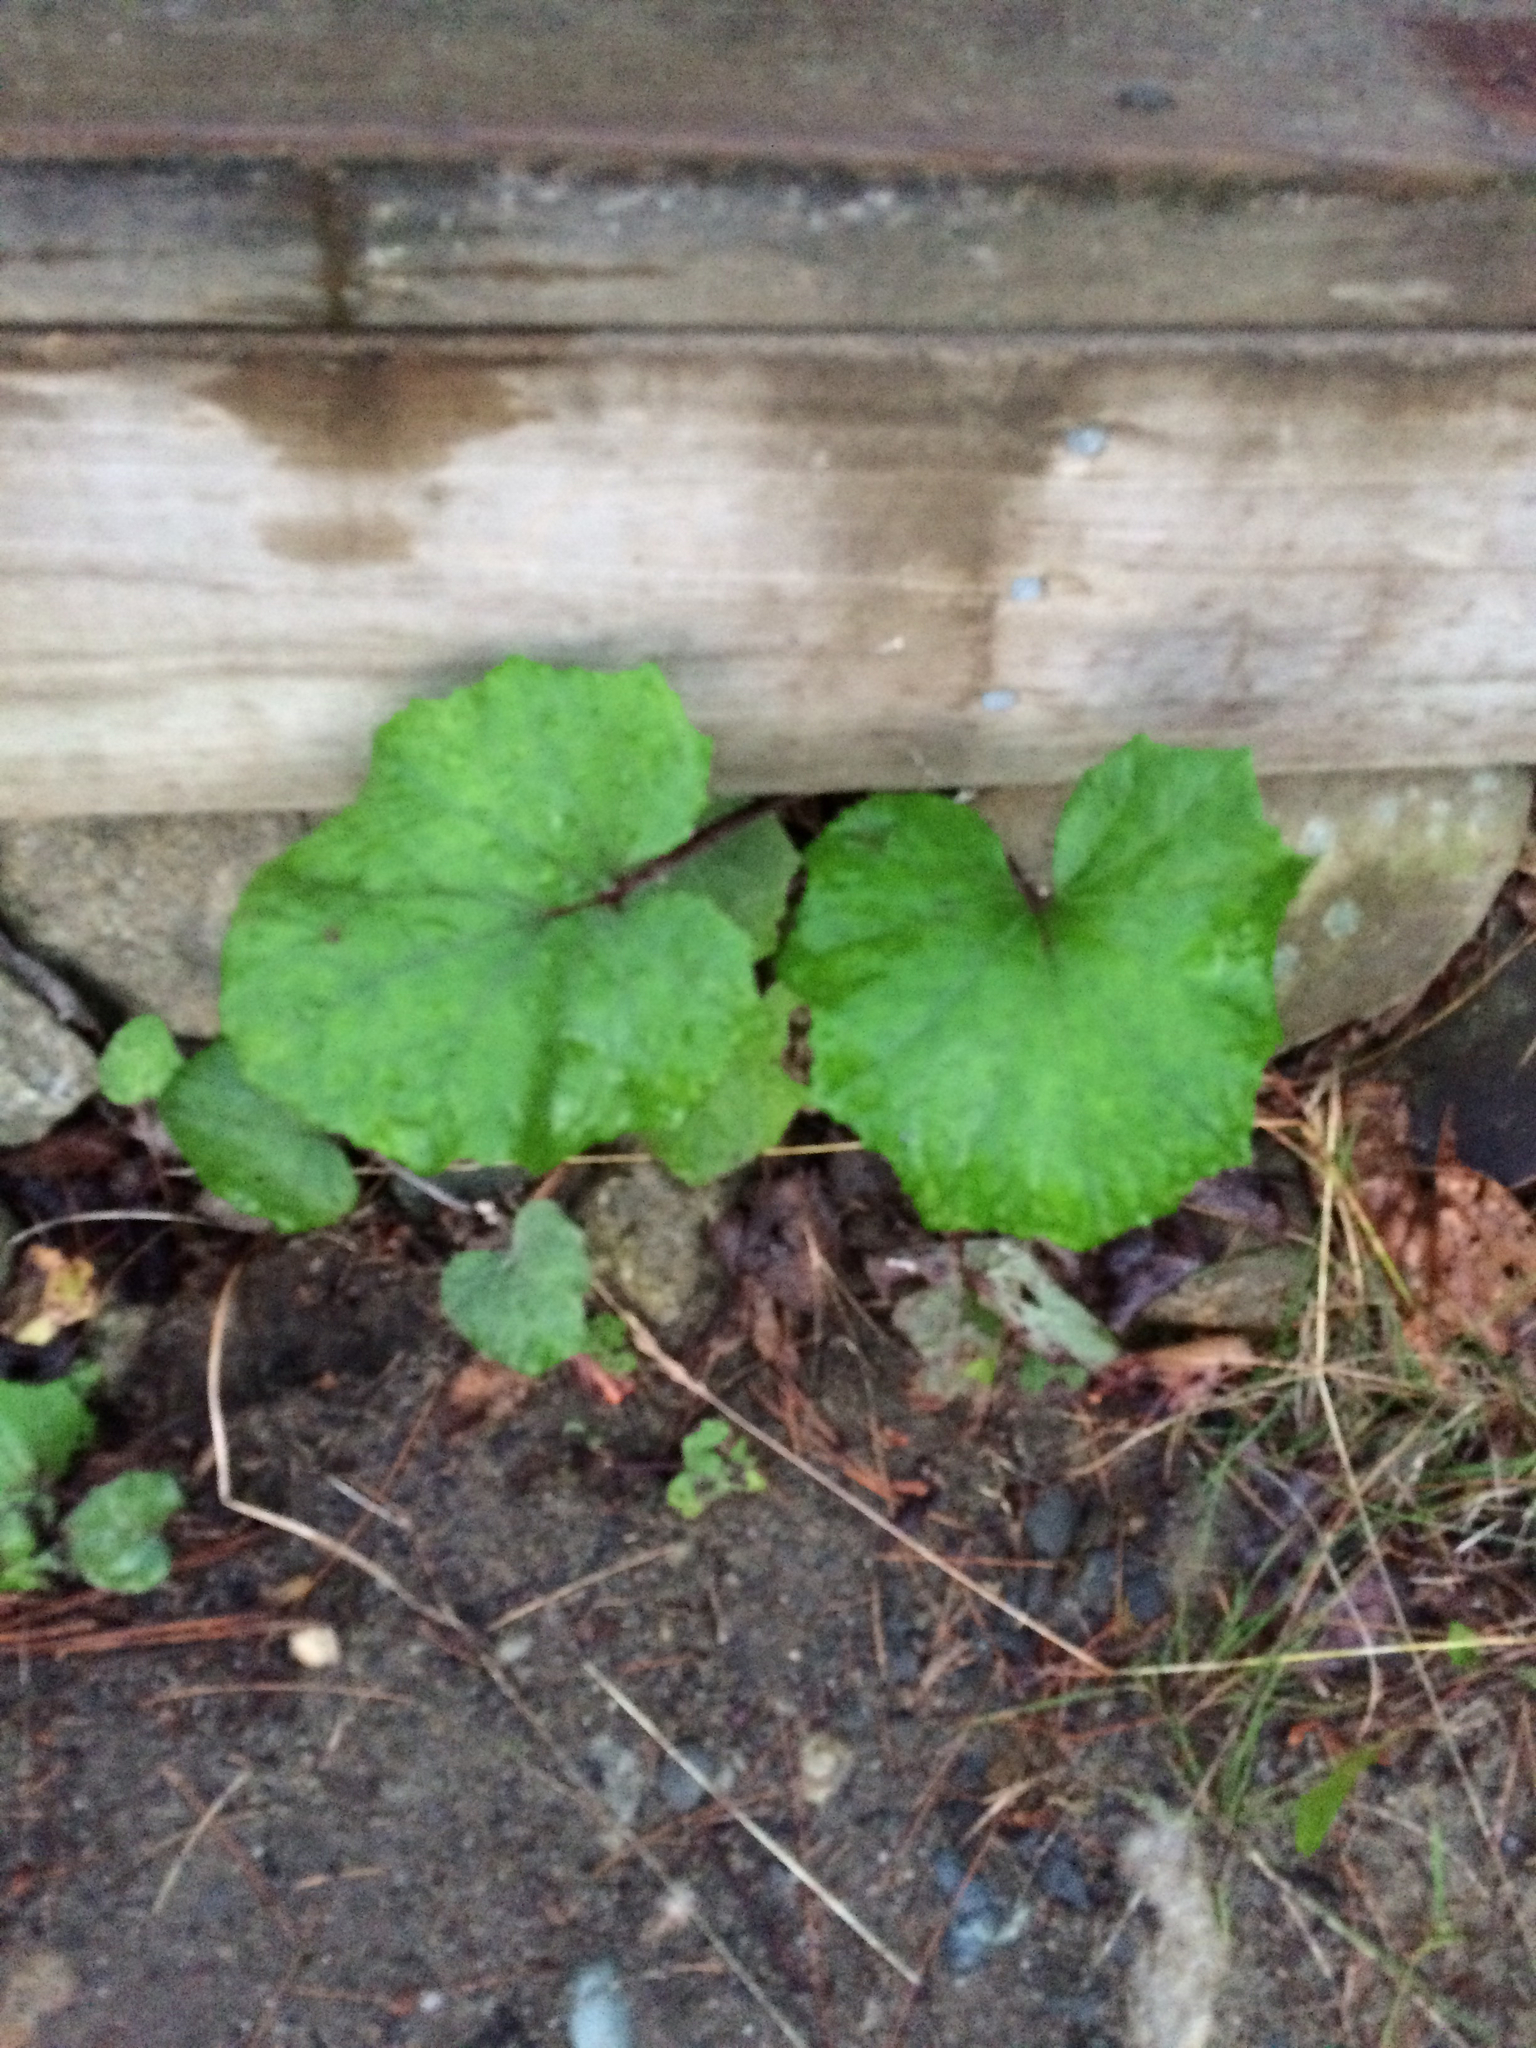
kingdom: Plantae
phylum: Tracheophyta
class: Magnoliopsida
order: Asterales
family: Asteraceae
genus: Tussilago
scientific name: Tussilago farfara
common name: Coltsfoot
